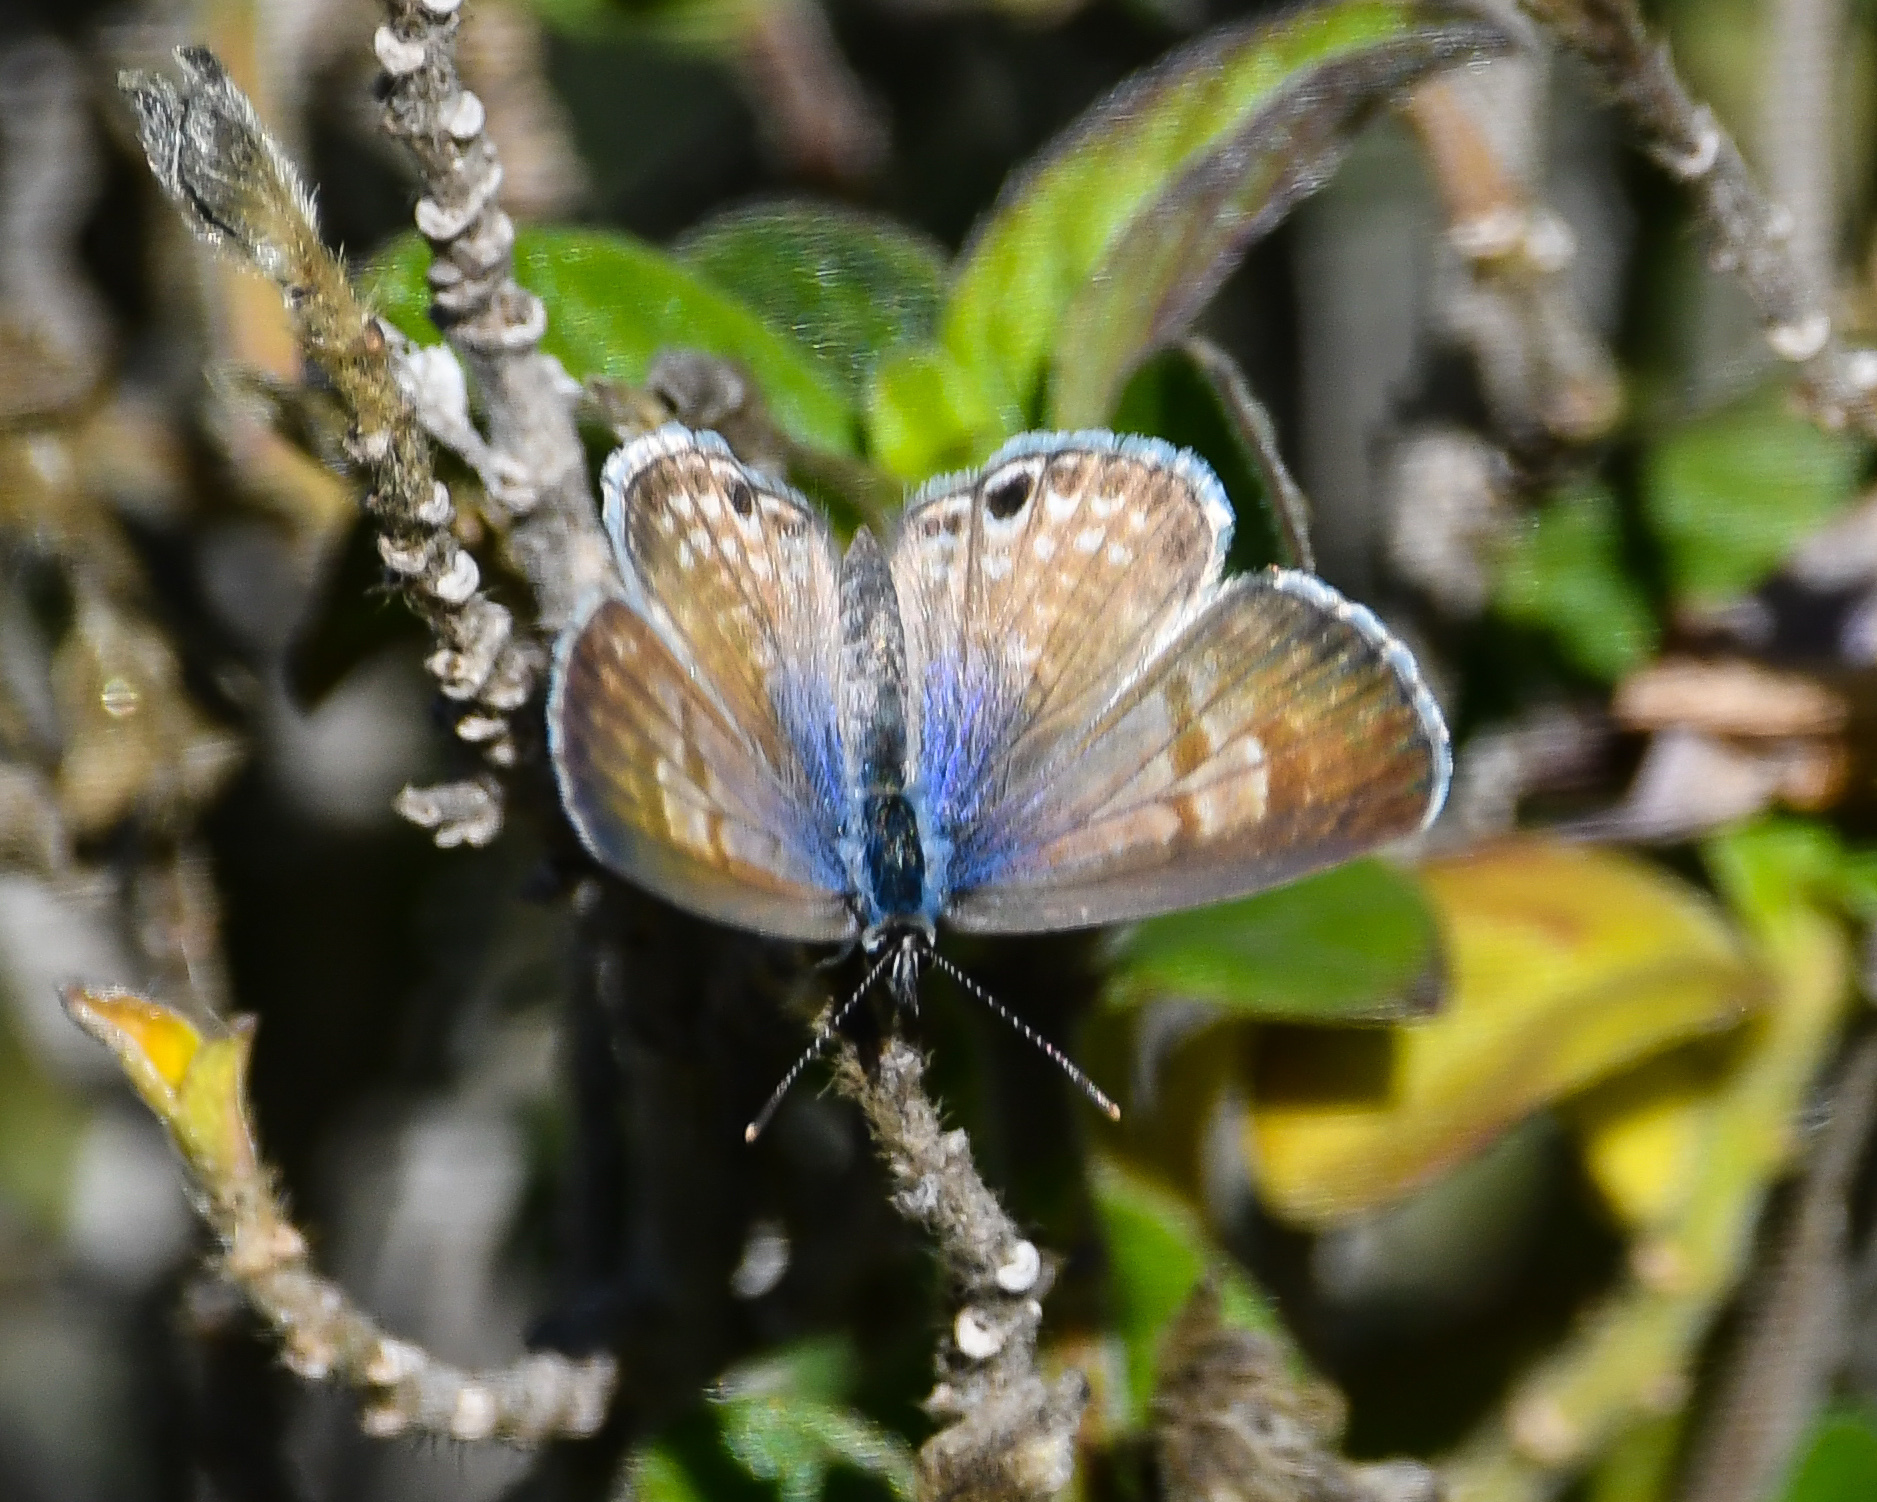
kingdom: Animalia
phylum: Arthropoda
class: Insecta
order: Lepidoptera
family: Lycaenidae
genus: Leptotes
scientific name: Leptotes marina
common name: Marine blue
